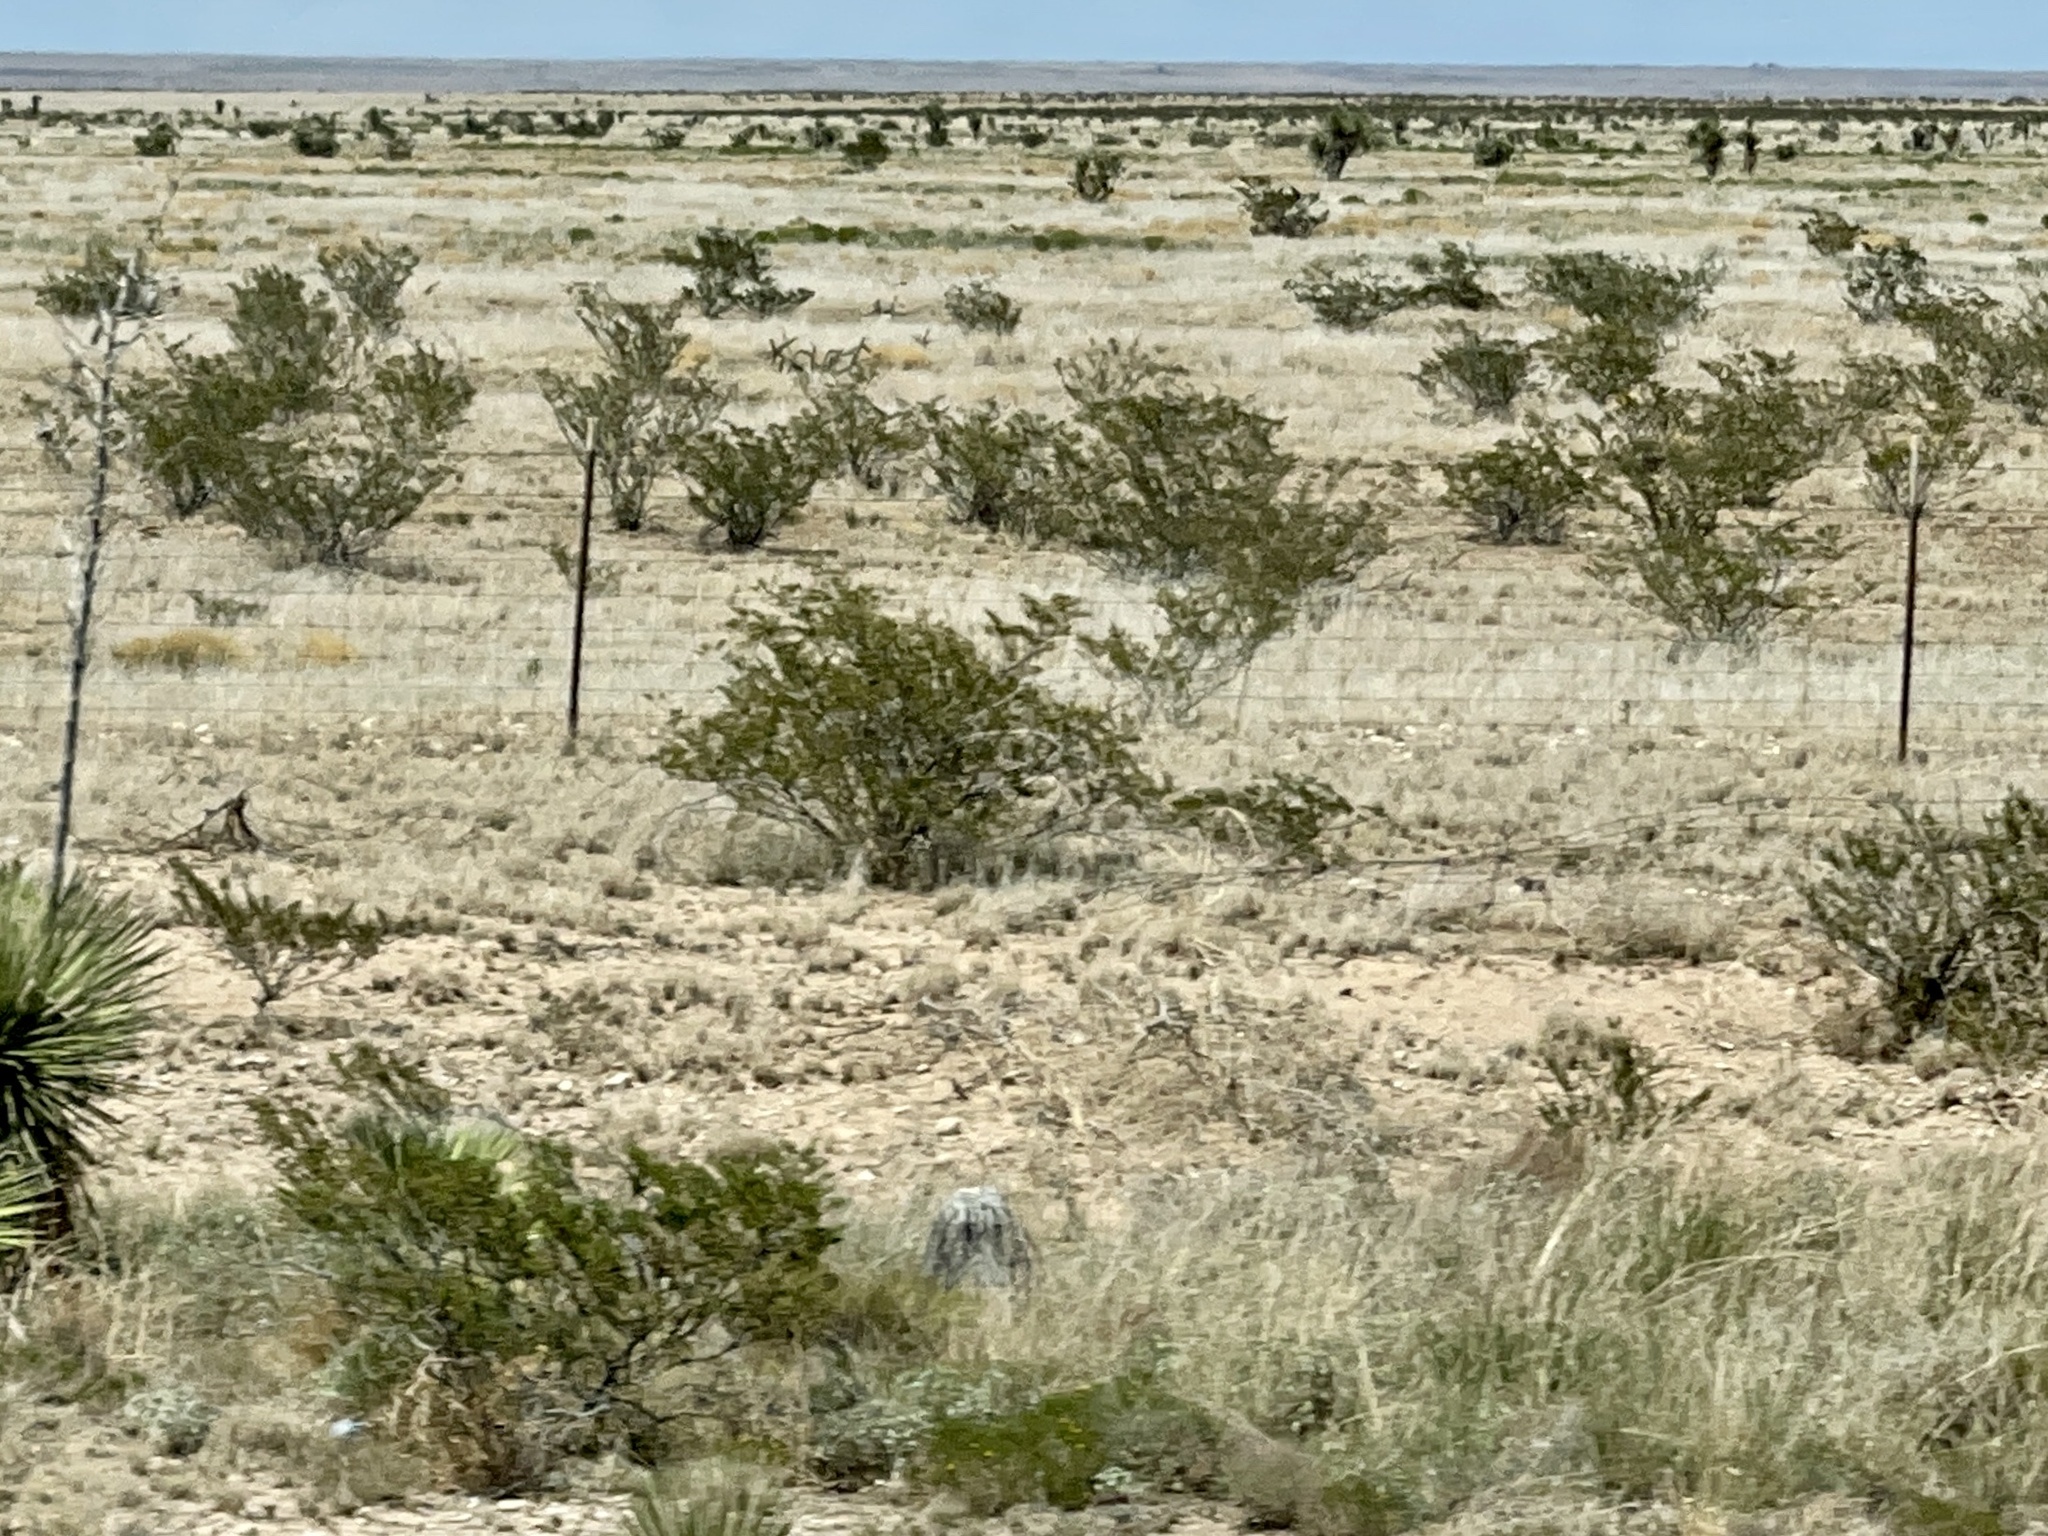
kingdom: Plantae
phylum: Tracheophyta
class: Magnoliopsida
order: Zygophyllales
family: Zygophyllaceae
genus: Larrea
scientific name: Larrea tridentata
